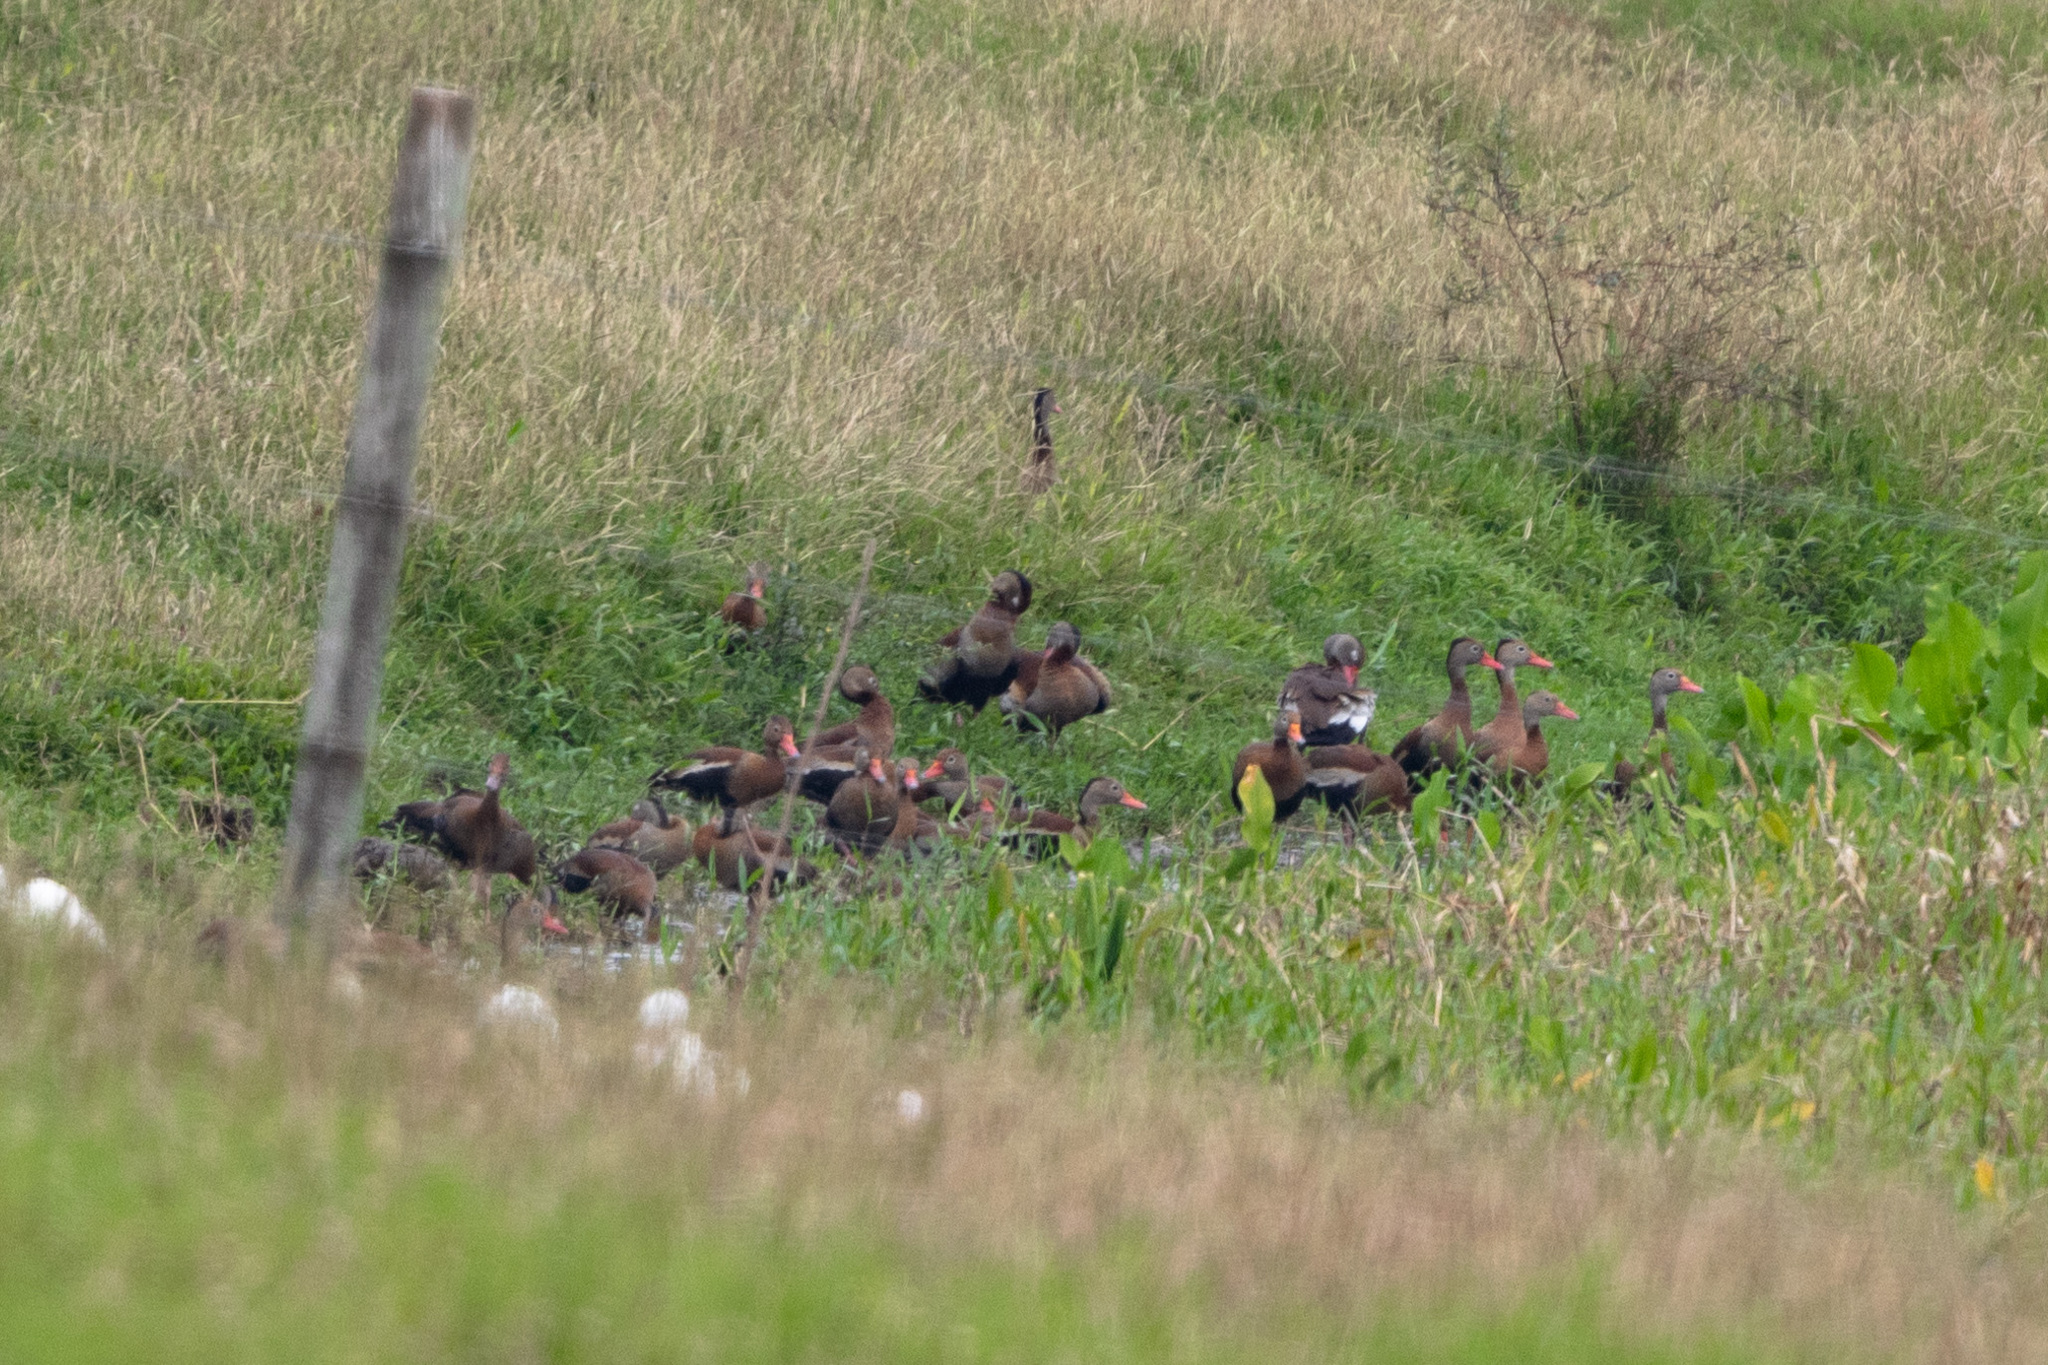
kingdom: Animalia
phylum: Chordata
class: Aves
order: Anseriformes
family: Anatidae
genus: Dendrocygna
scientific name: Dendrocygna autumnalis
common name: Black-bellied whistling duck
